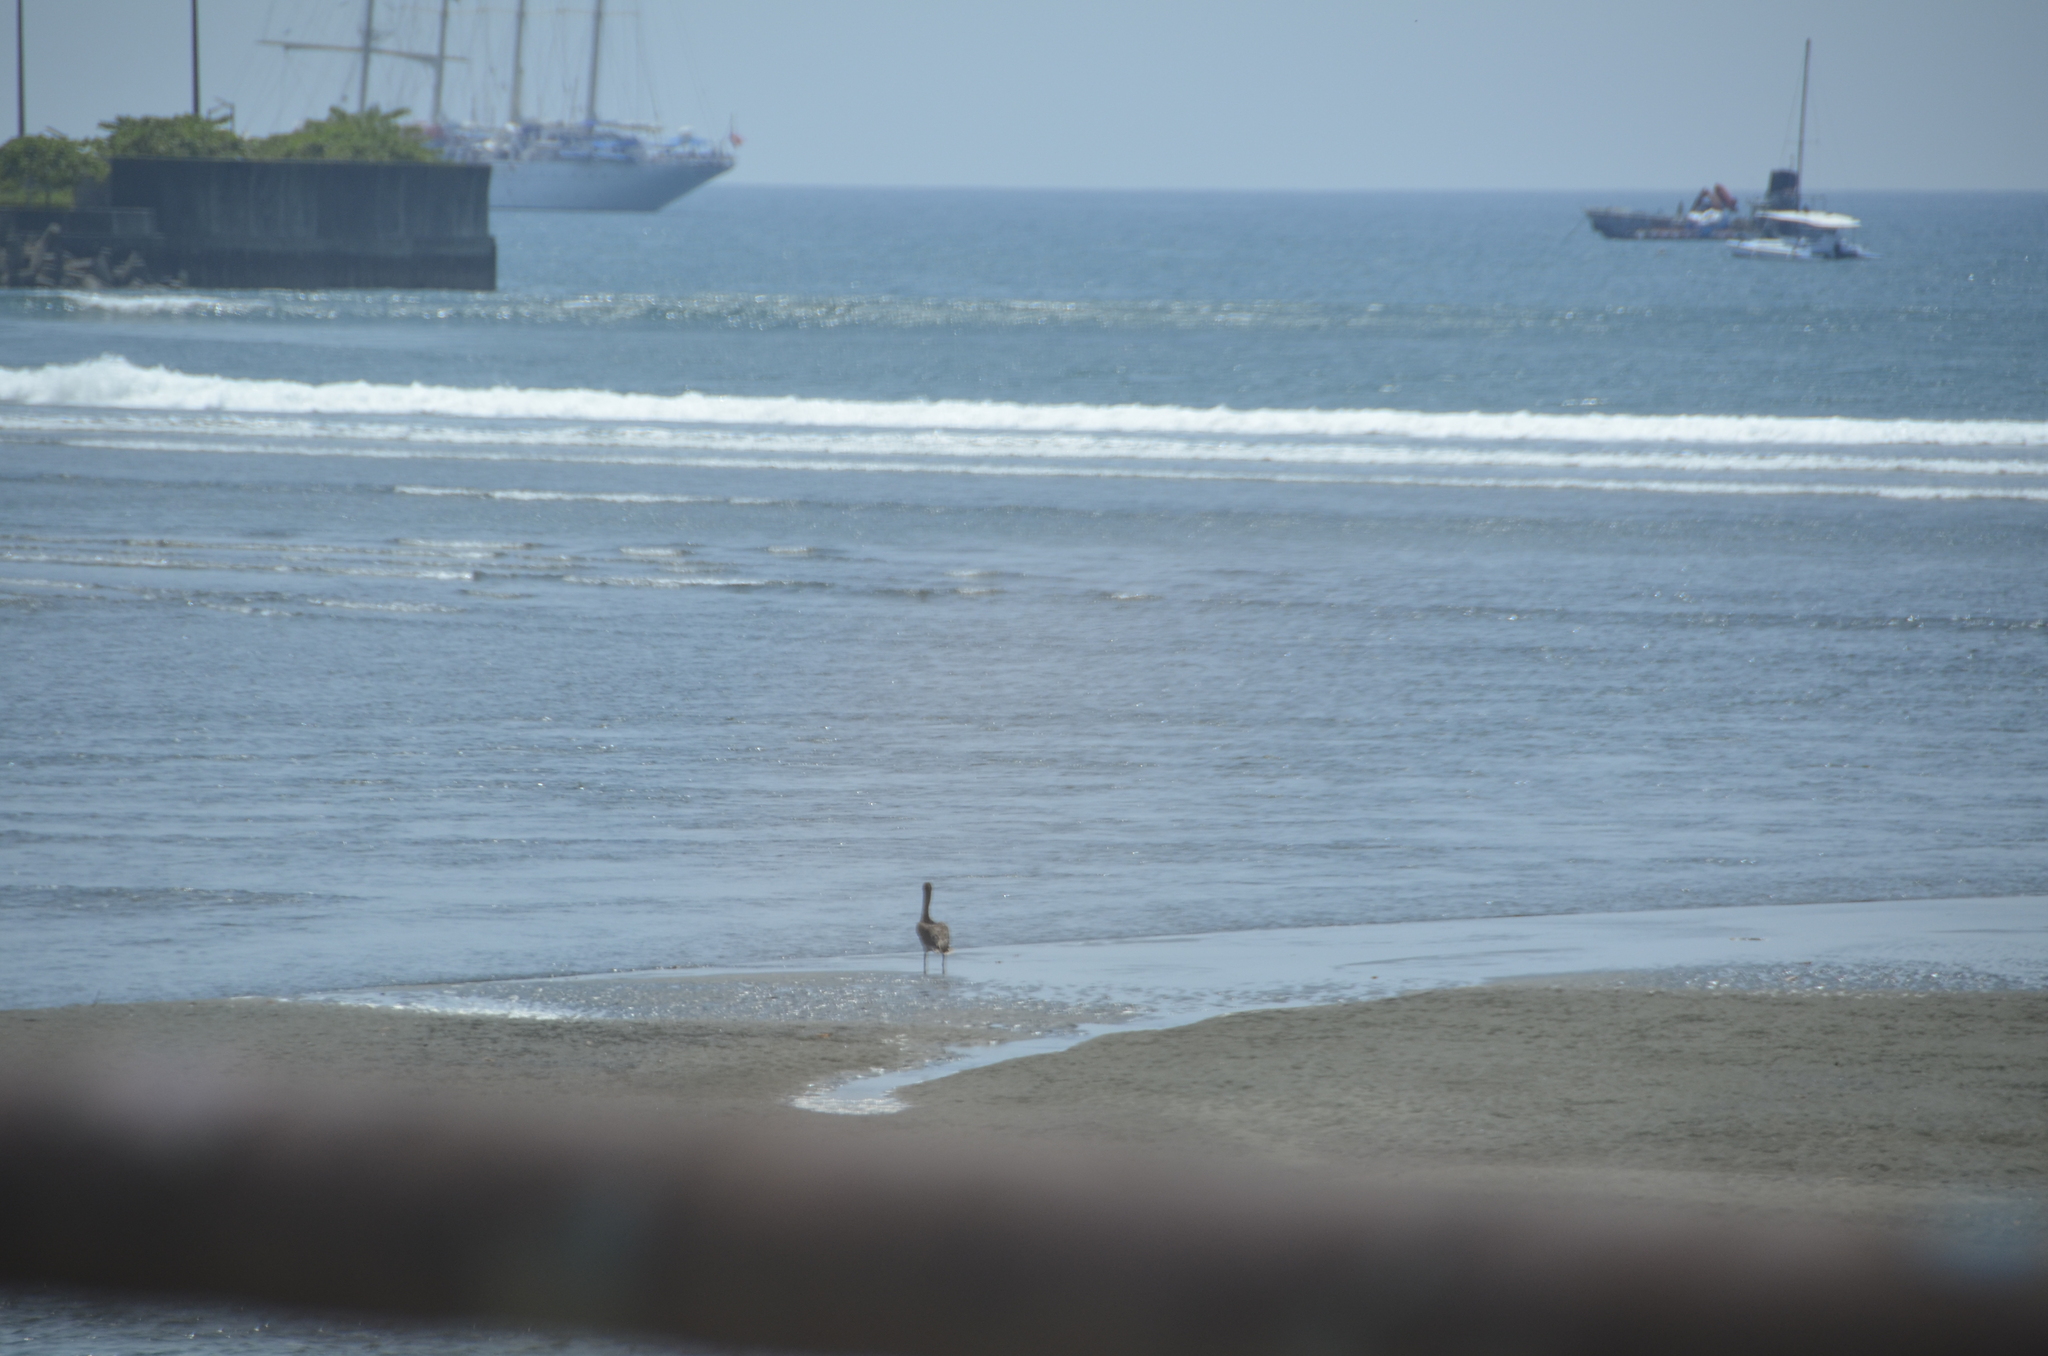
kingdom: Animalia
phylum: Chordata
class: Aves
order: Pelecaniformes
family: Pelecanidae
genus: Pelecanus
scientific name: Pelecanus occidentalis
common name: Brown pelican
